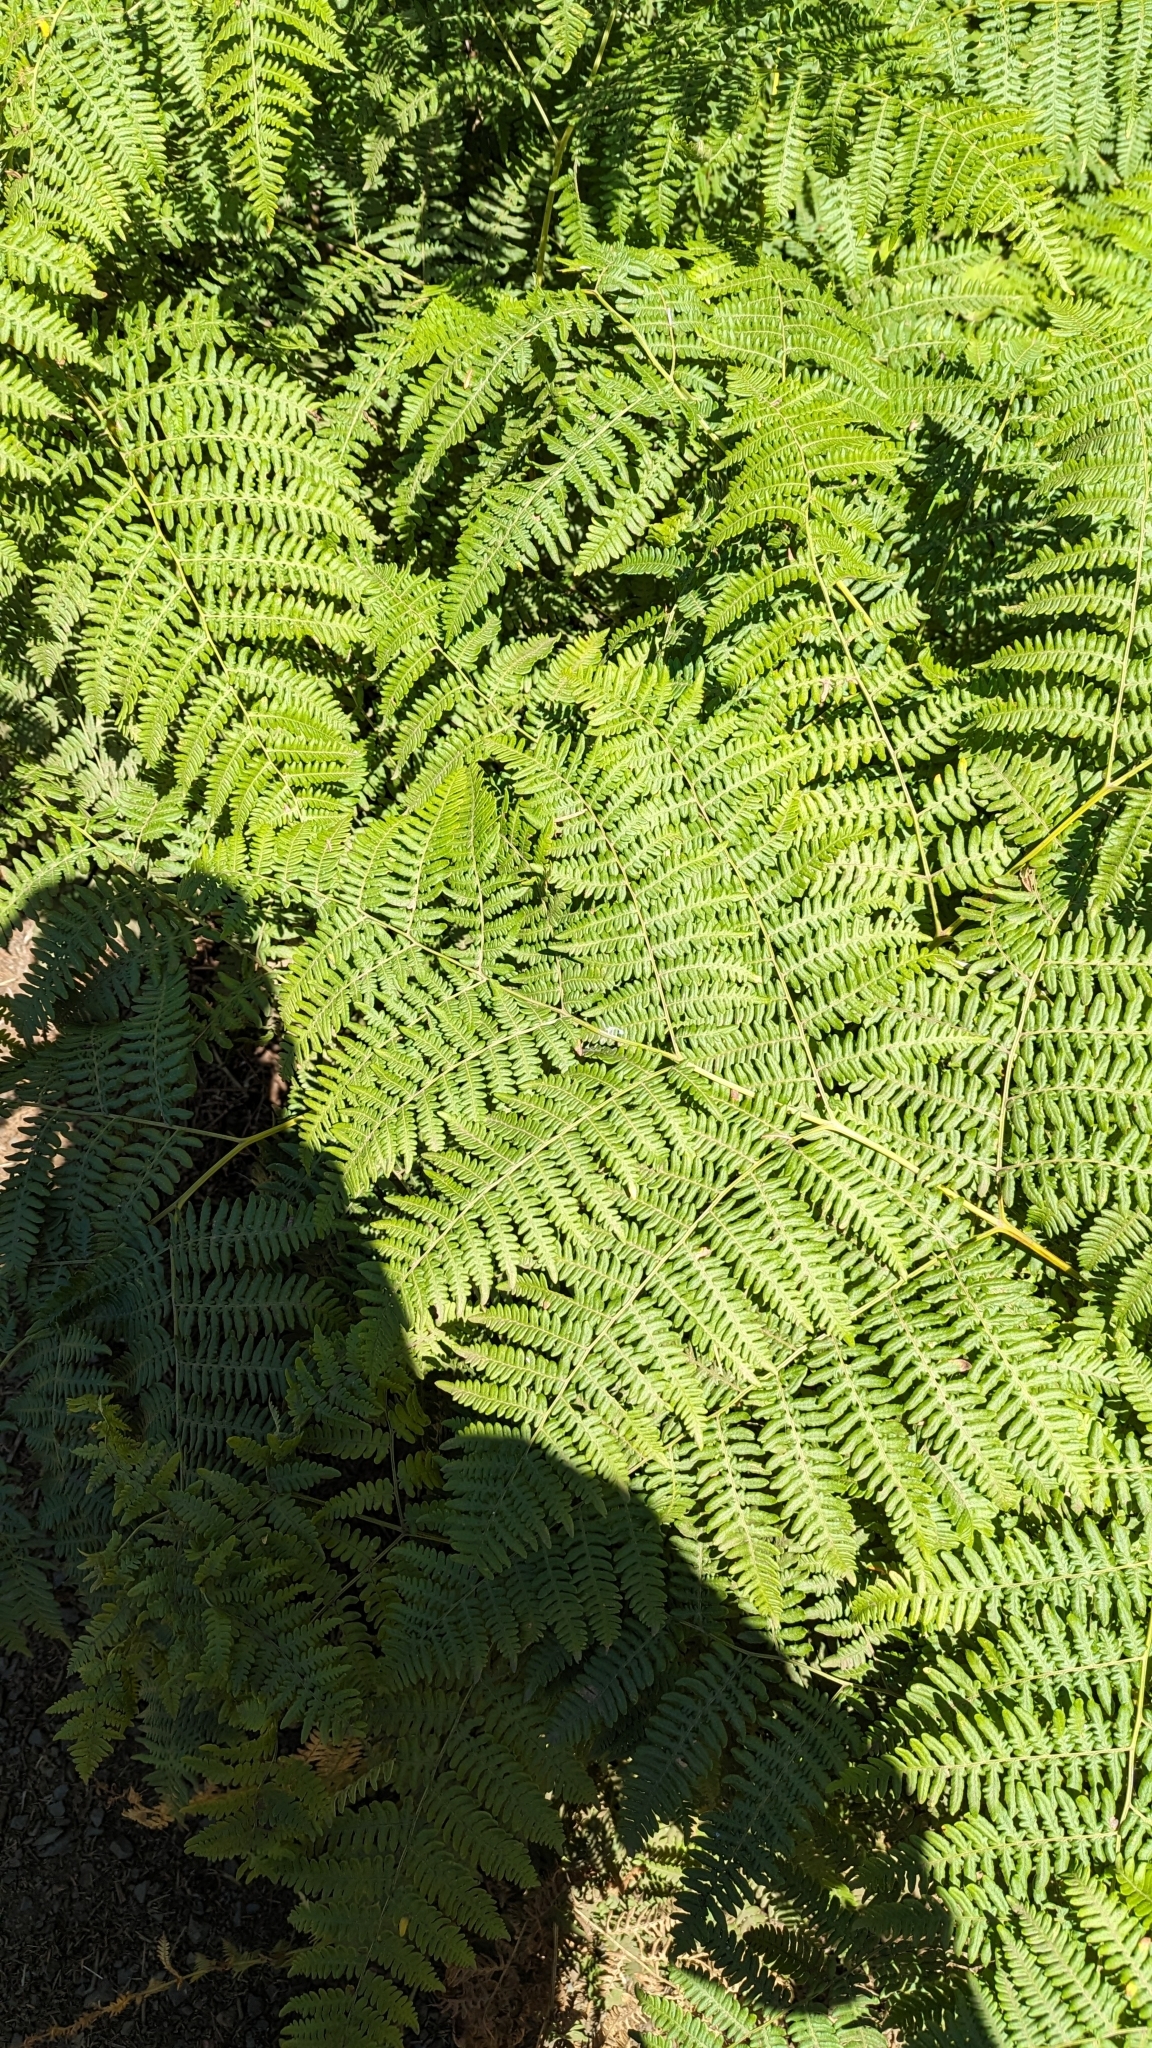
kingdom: Plantae
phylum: Tracheophyta
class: Polypodiopsida
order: Polypodiales
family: Dennstaedtiaceae
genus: Pteridium
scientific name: Pteridium aquilinum
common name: Bracken
